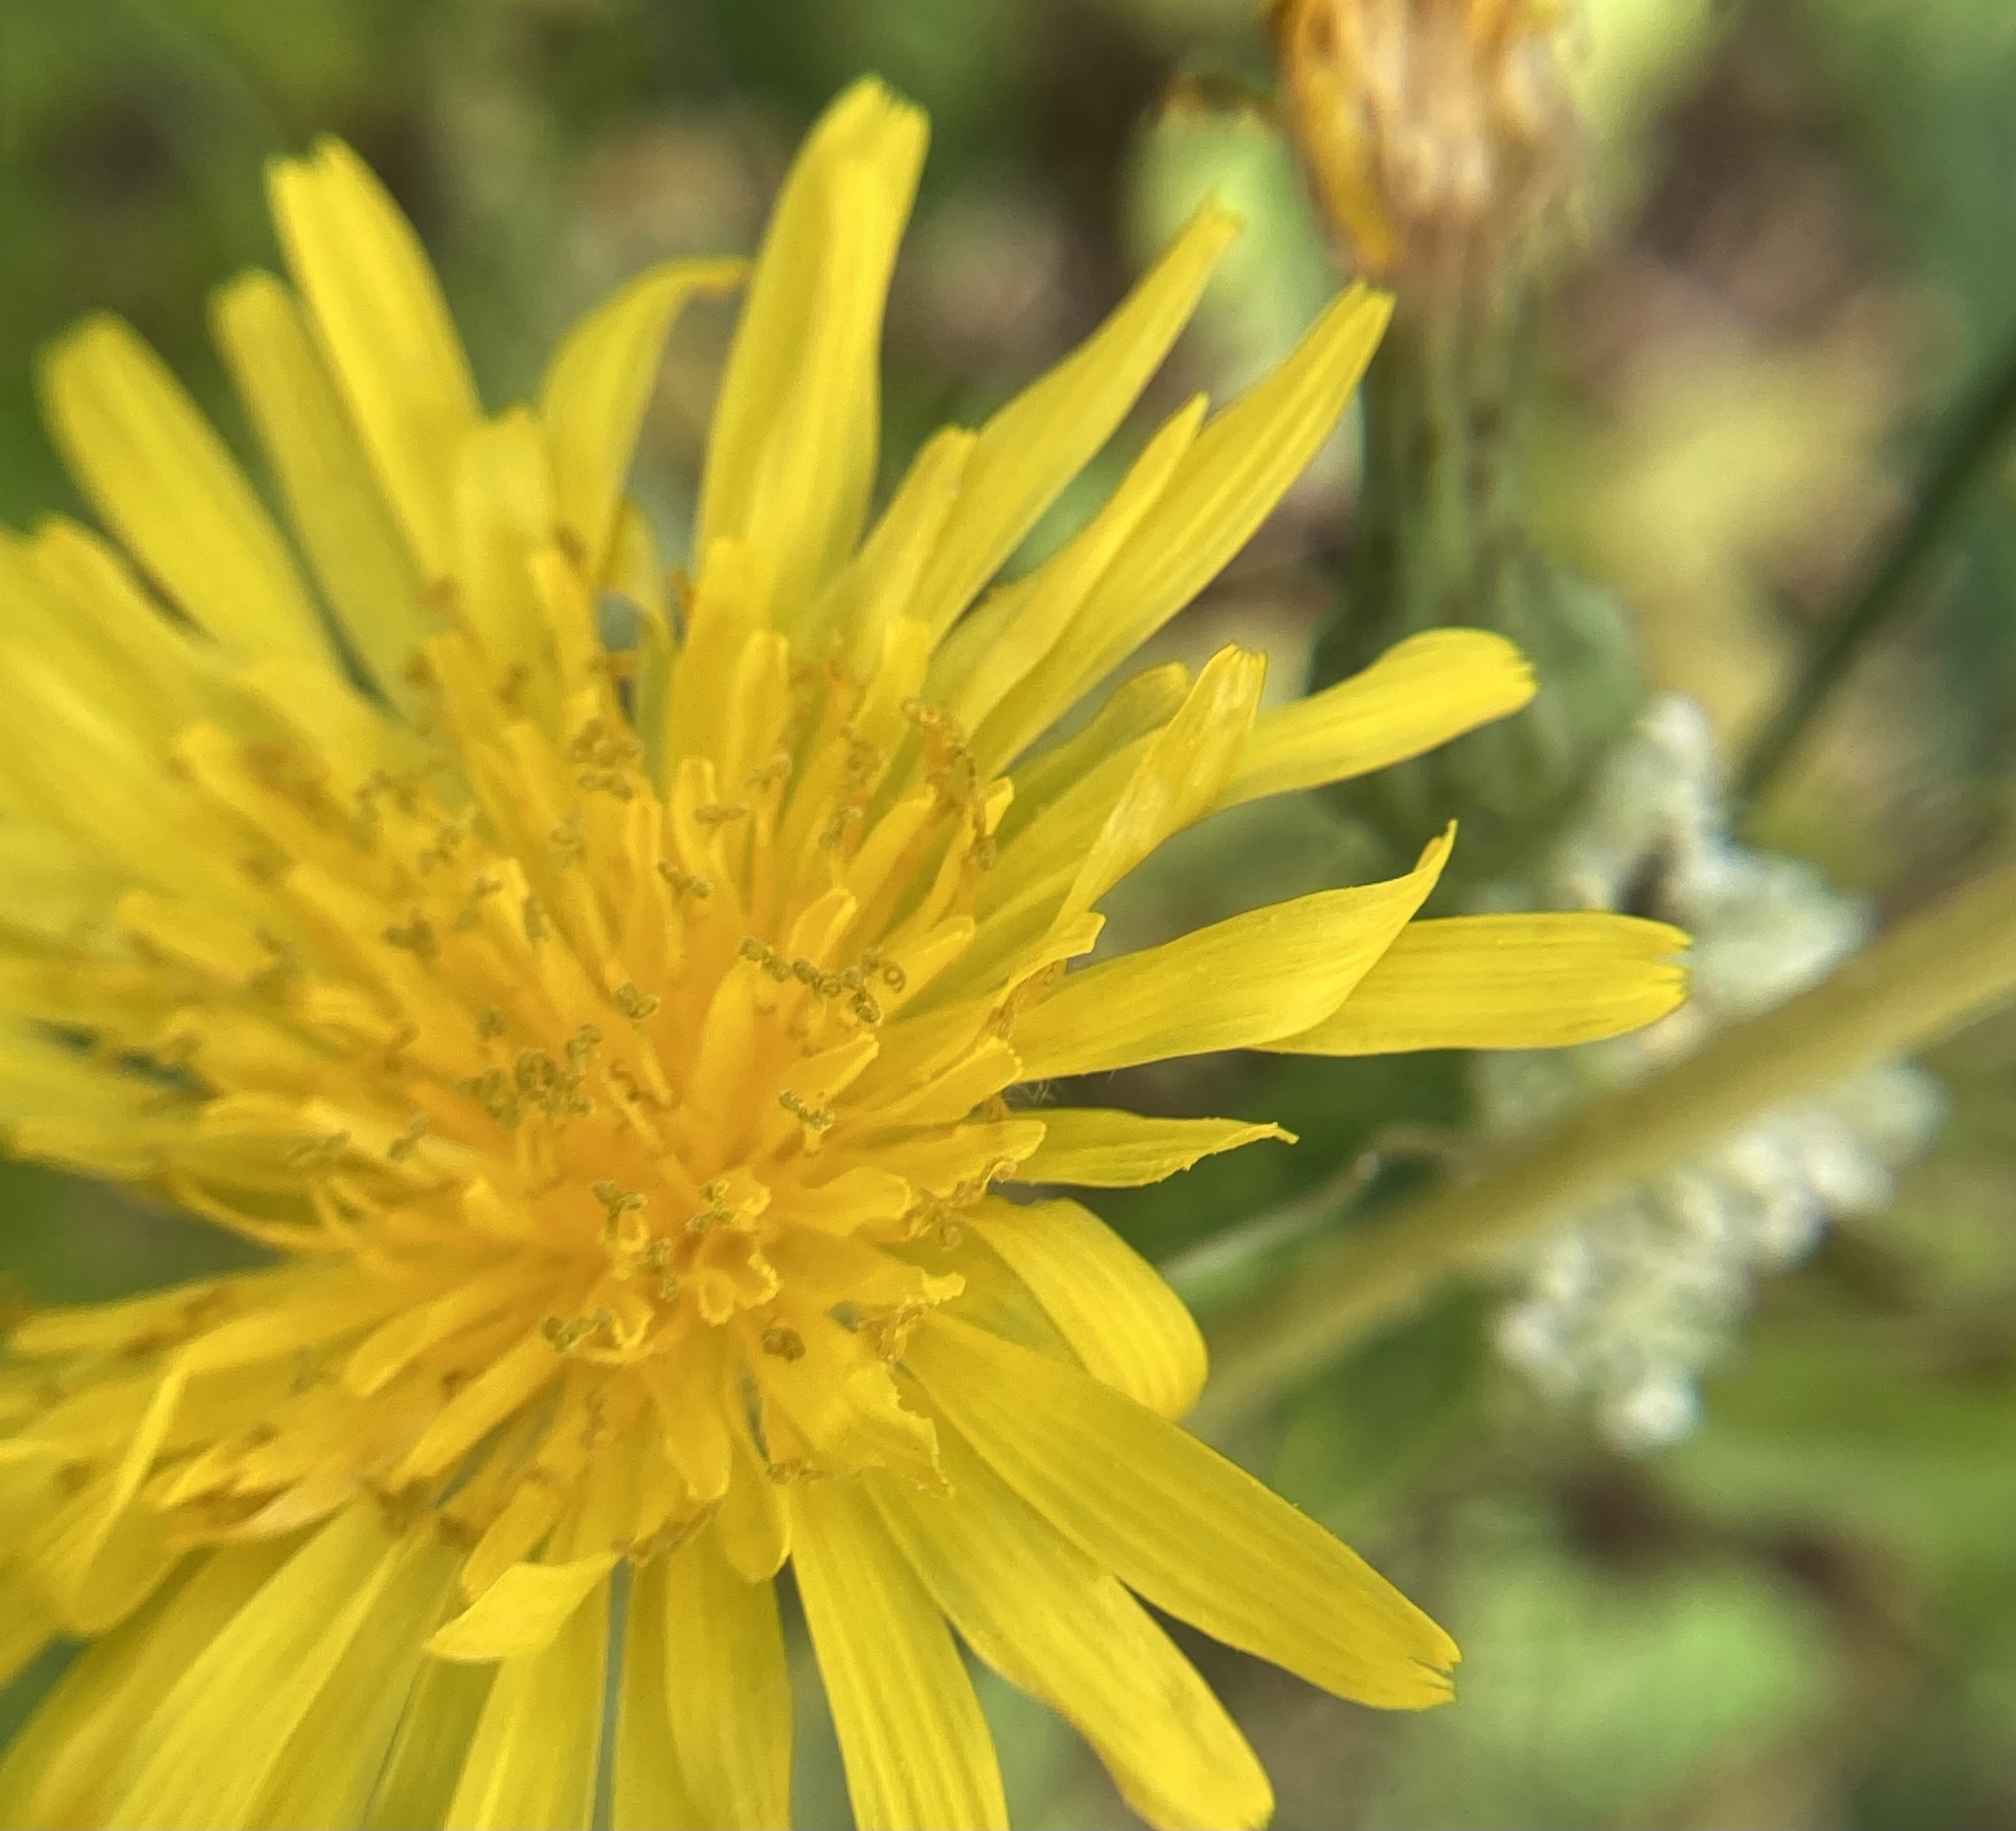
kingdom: Plantae
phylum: Tracheophyta
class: Magnoliopsida
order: Asterales
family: Asteraceae
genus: Taraxacum
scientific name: Taraxacum officinale
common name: Common dandelion
